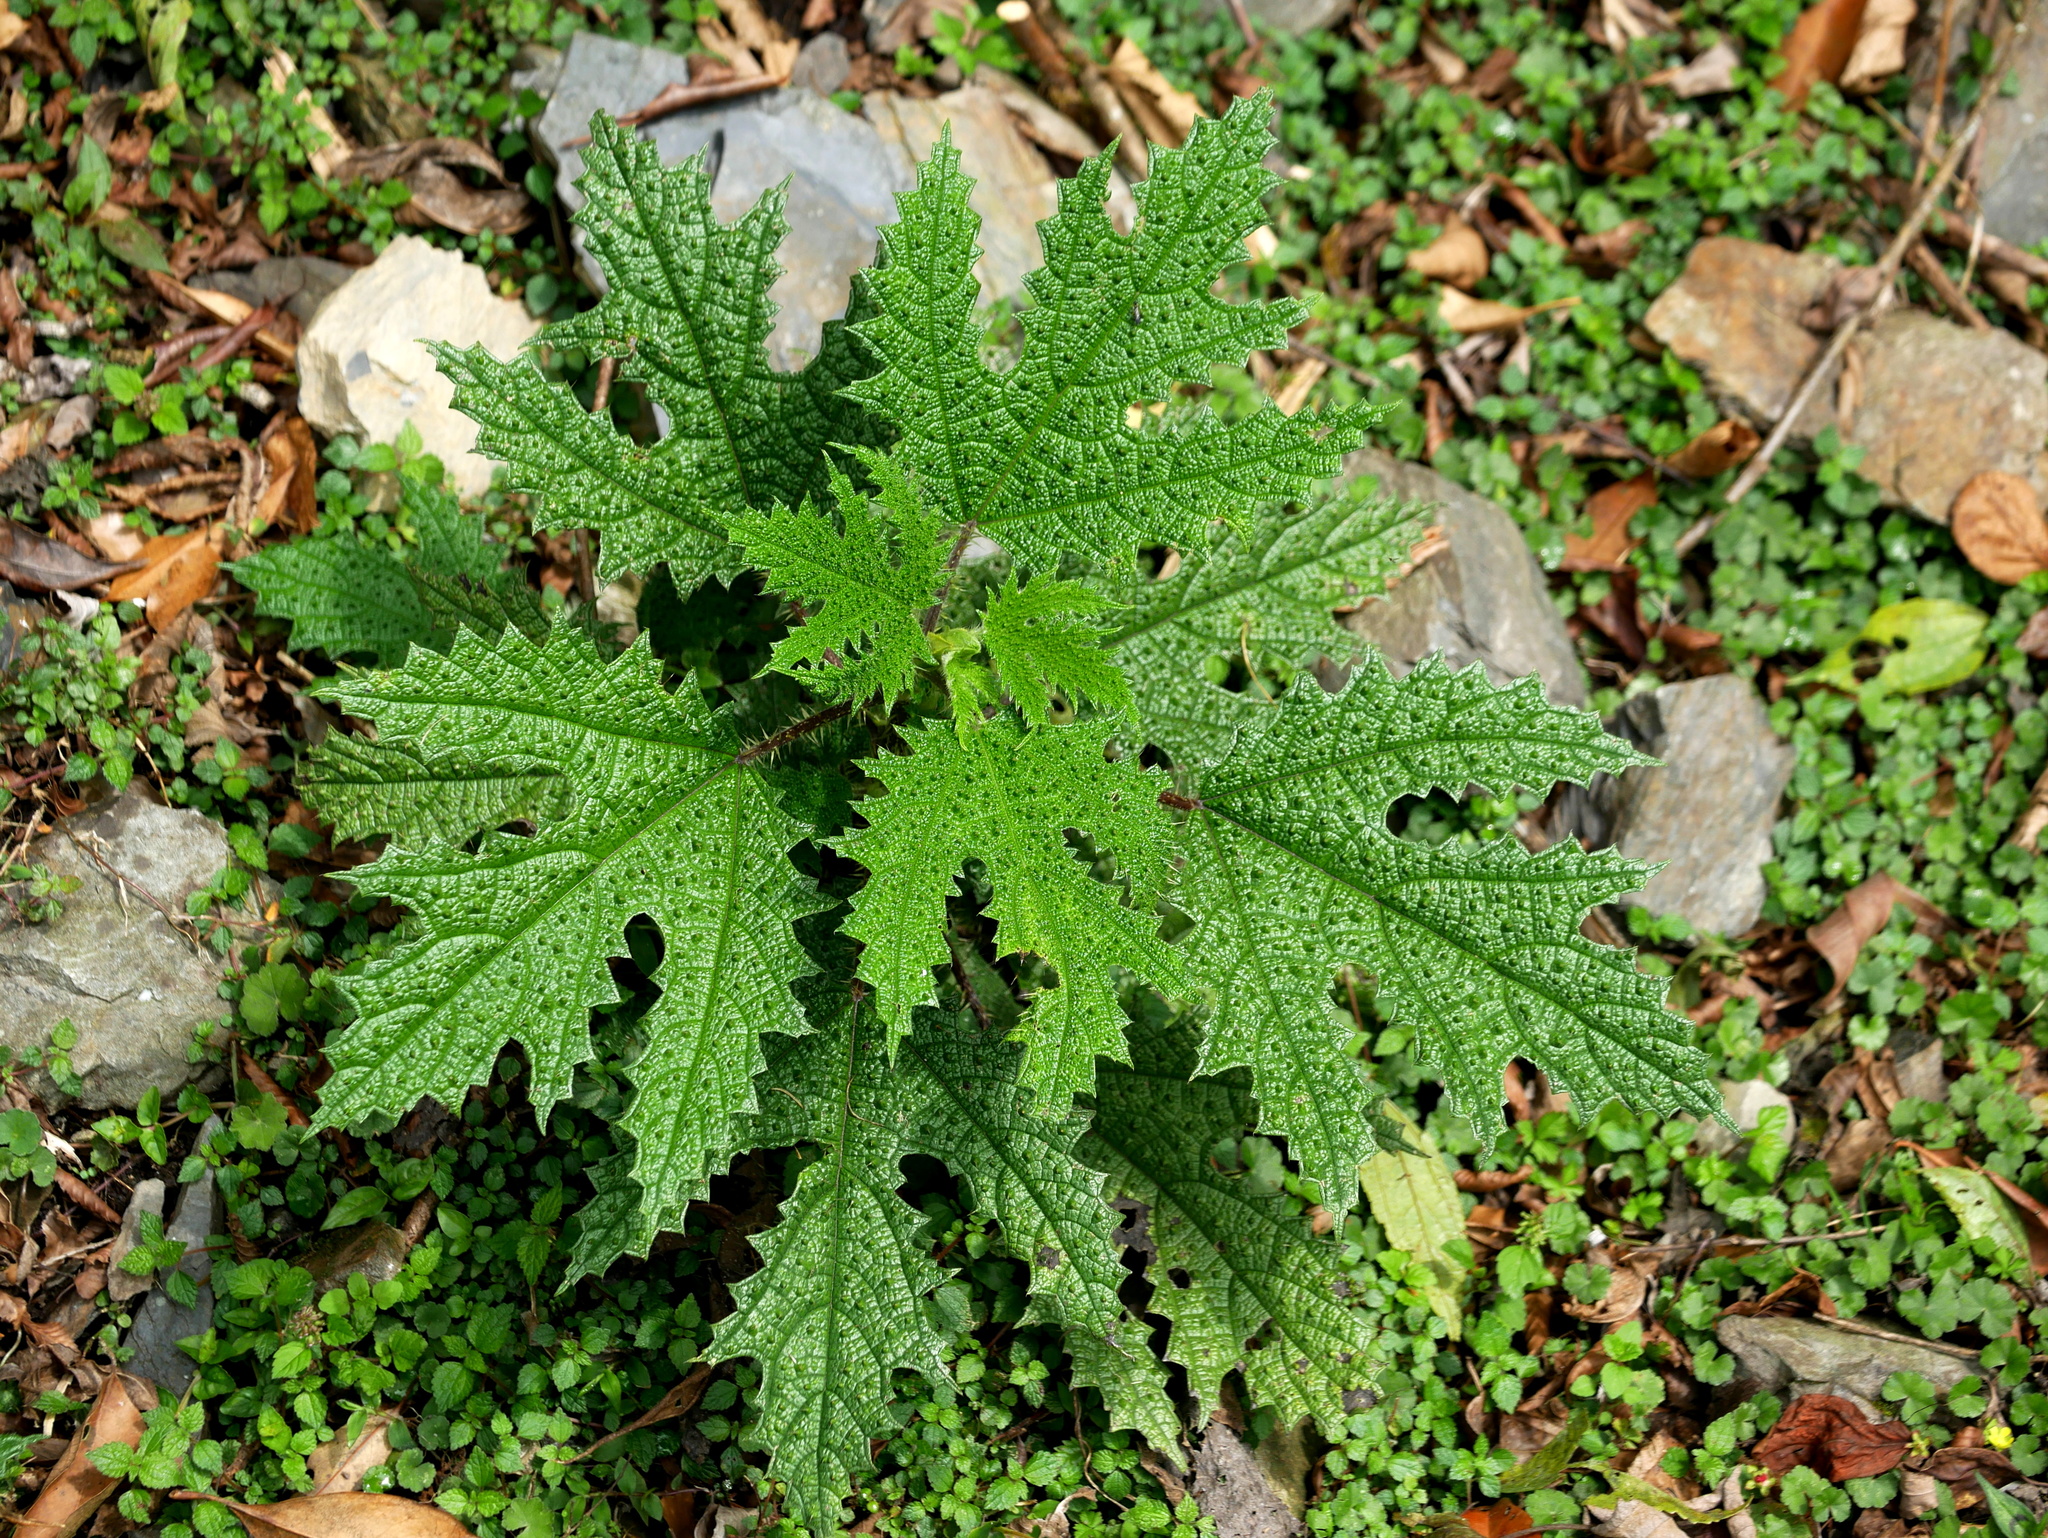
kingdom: Plantae
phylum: Tracheophyta
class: Magnoliopsida
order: Rosales
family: Urticaceae
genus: Girardinia
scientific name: Girardinia diversifolia
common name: Himalayan-nettle
